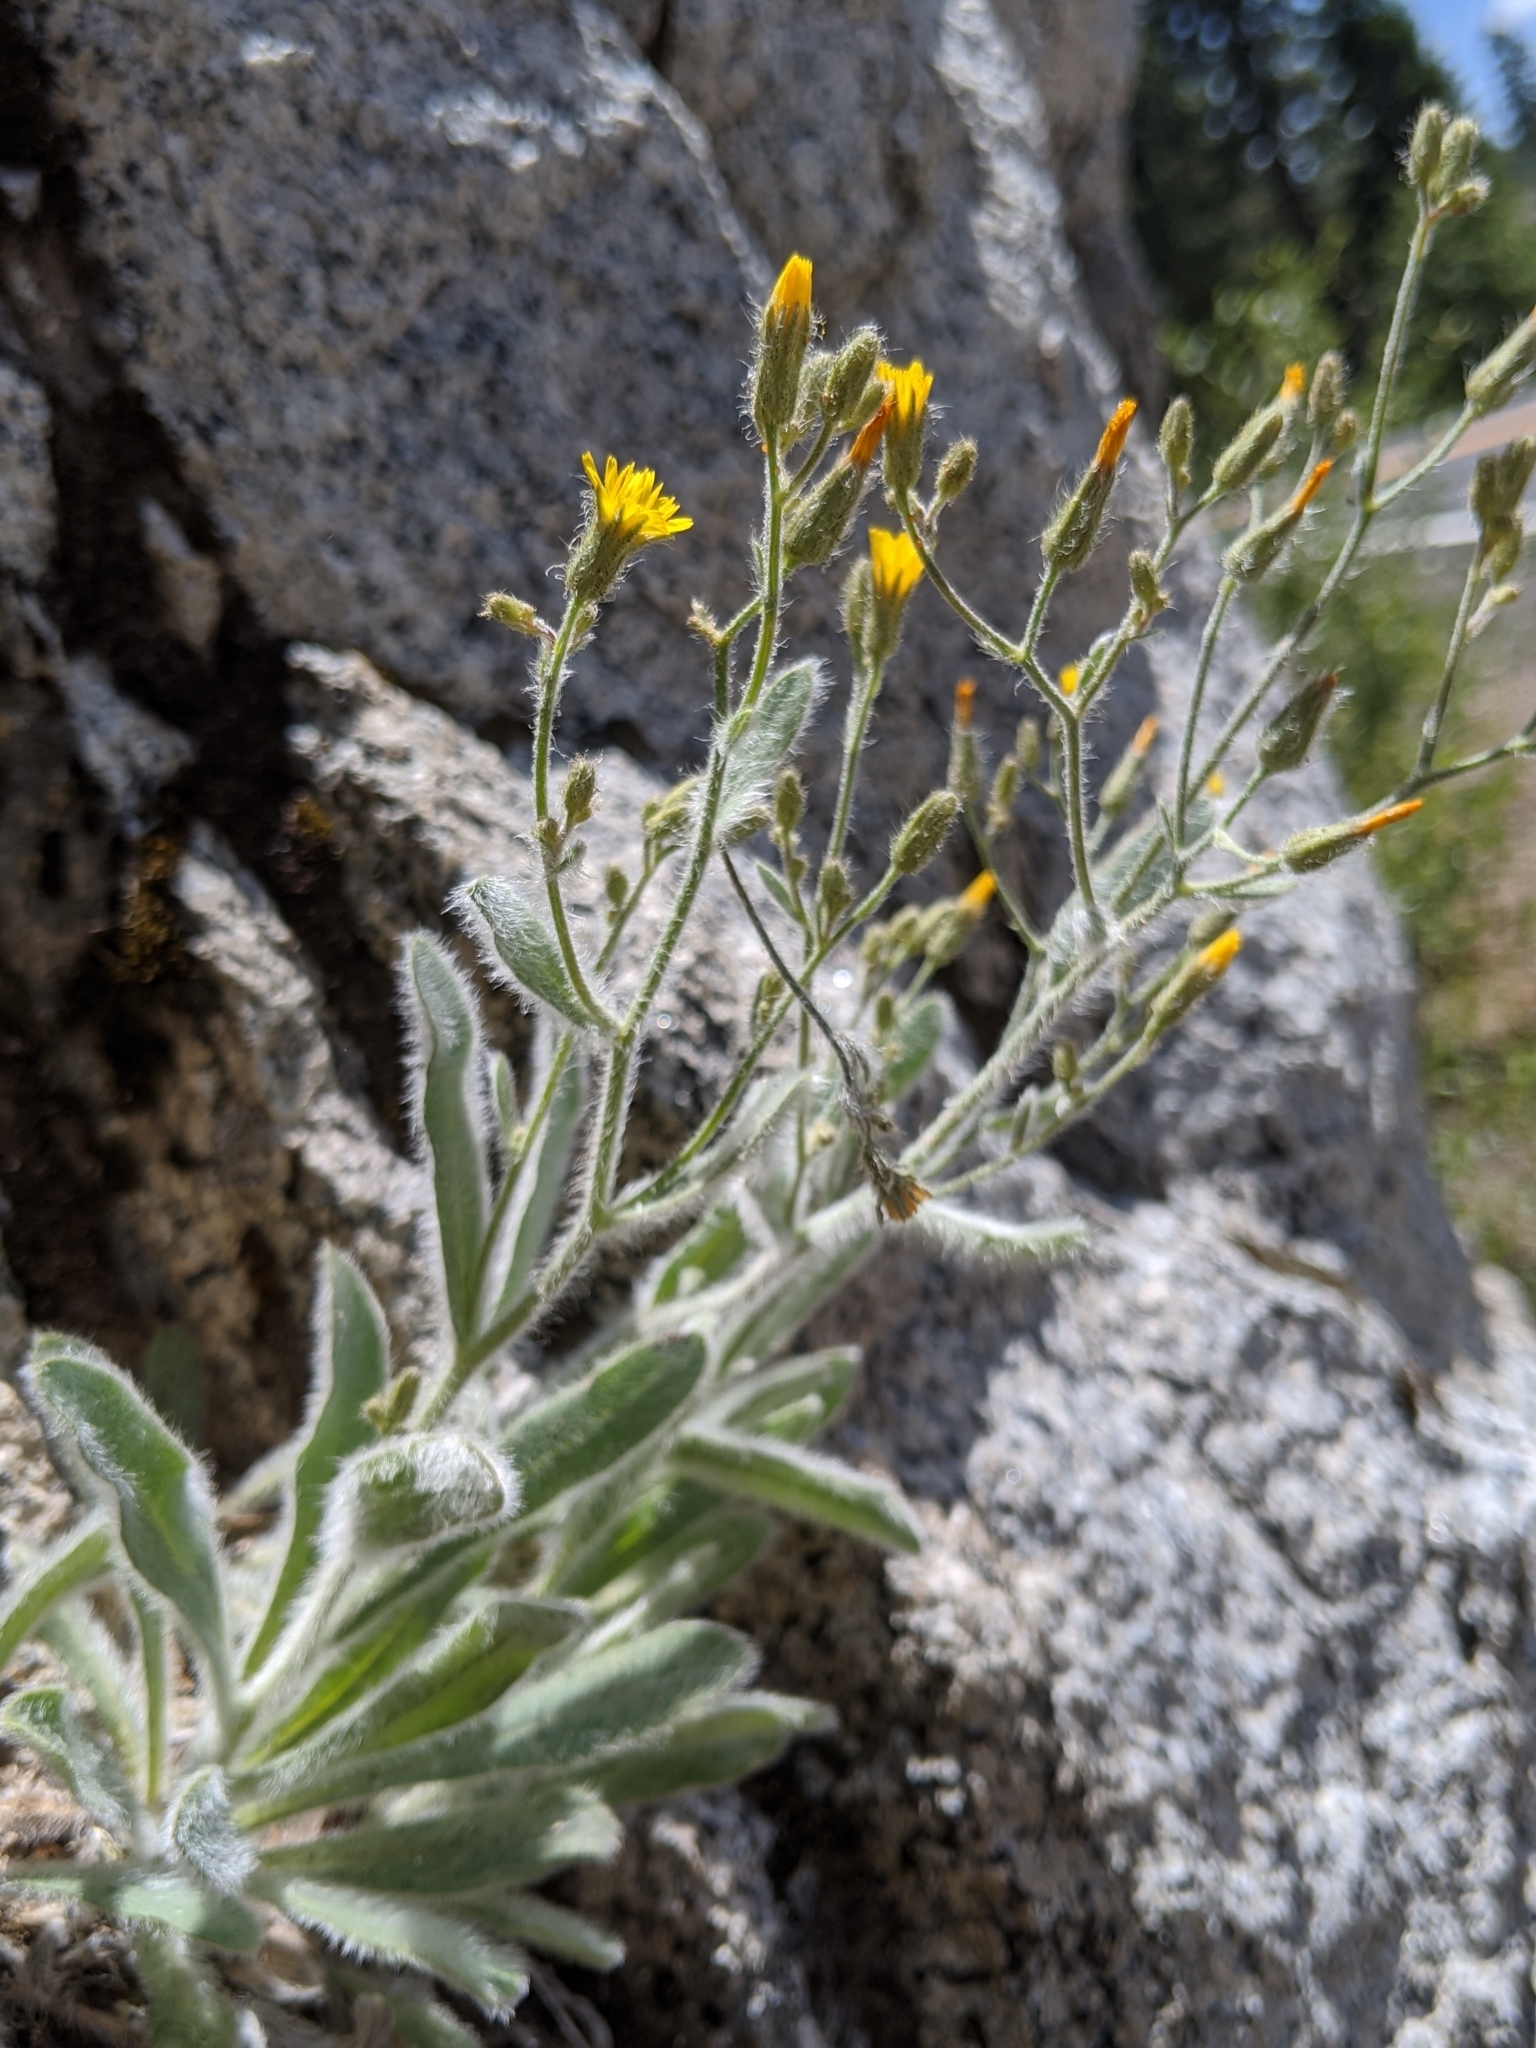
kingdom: Plantae
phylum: Tracheophyta
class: Magnoliopsida
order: Asterales
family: Asteraceae
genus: Hieracium
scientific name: Hieracium horridum
